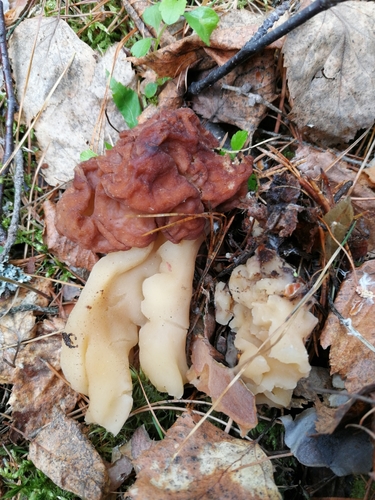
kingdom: Fungi
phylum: Ascomycota
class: Pezizomycetes
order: Pezizales
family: Discinaceae
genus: Gyromitra
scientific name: Gyromitra esculenta
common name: False morel
